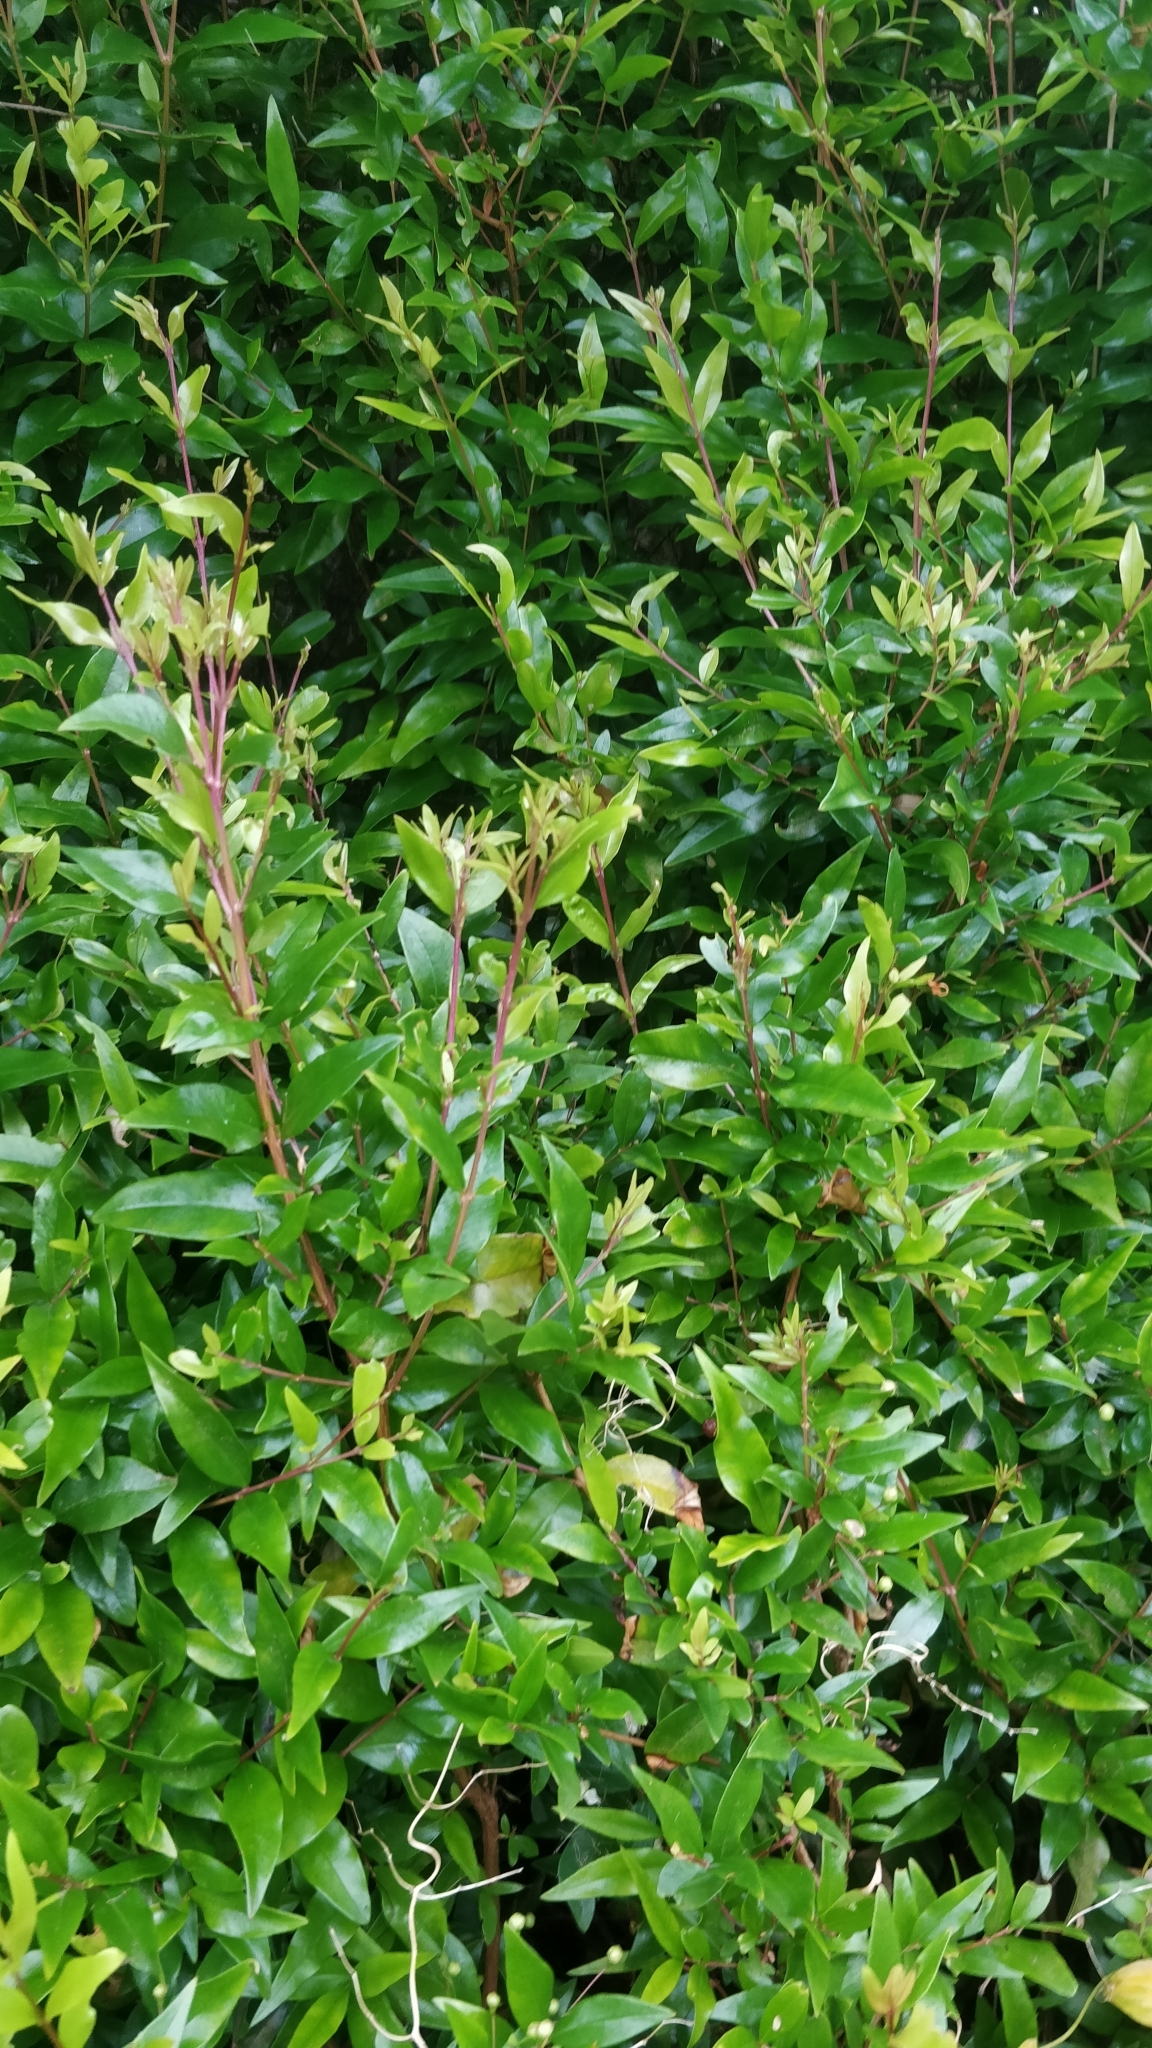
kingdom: Plantae
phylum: Tracheophyta
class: Magnoliopsida
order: Myrtales
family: Myrtaceae
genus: Myrtus
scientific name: Myrtus communis
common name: Myrtle
